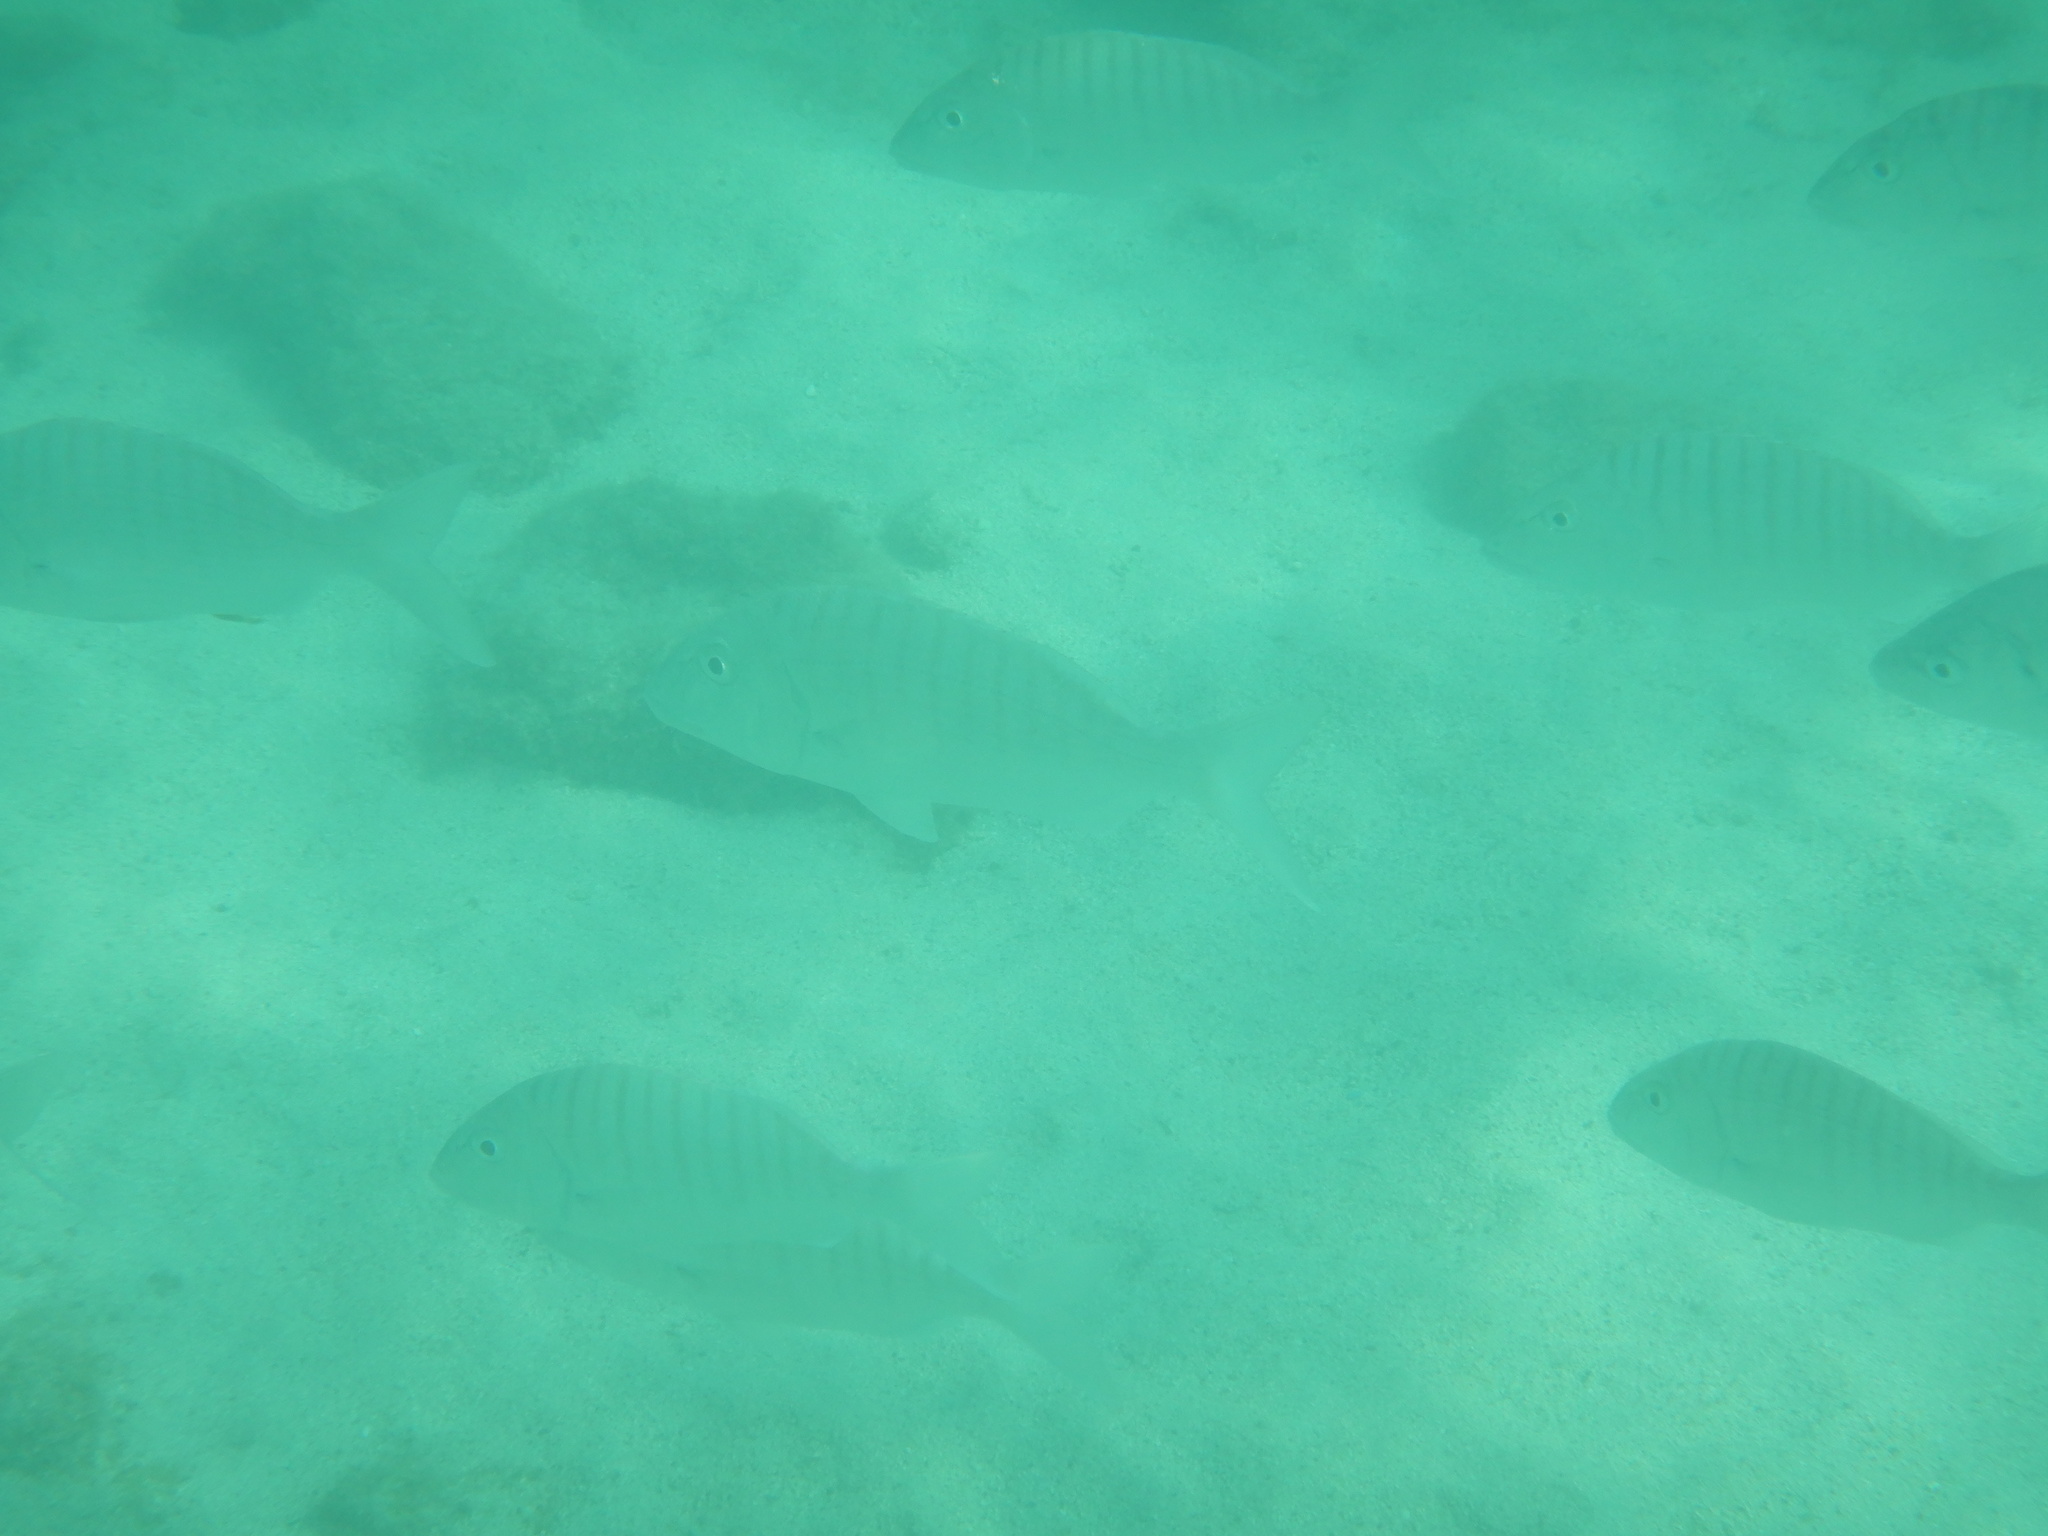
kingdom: Animalia
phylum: Chordata
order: Perciformes
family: Sparidae
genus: Lithognathus
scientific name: Lithognathus mormyrus
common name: Sand steenbras
